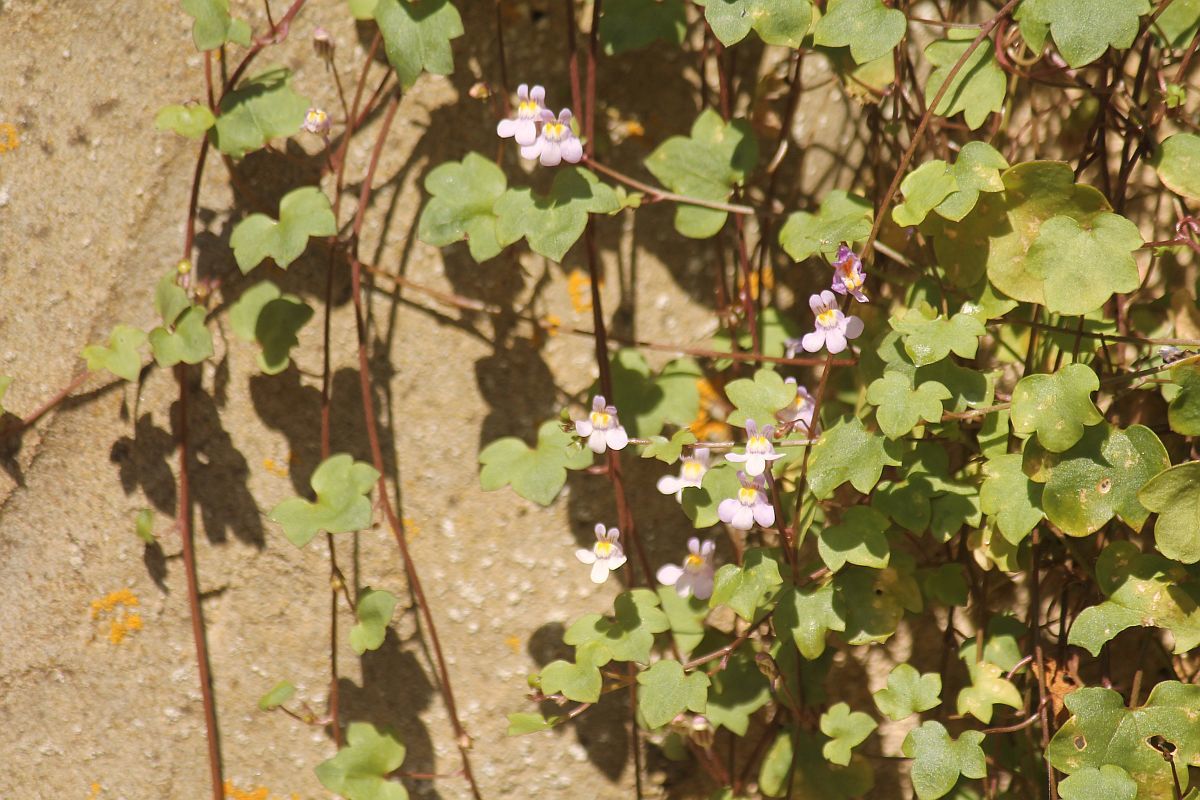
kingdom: Plantae
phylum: Tracheophyta
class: Magnoliopsida
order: Lamiales
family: Plantaginaceae
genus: Cymbalaria
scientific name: Cymbalaria muralis
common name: Ivy-leaved toadflax
